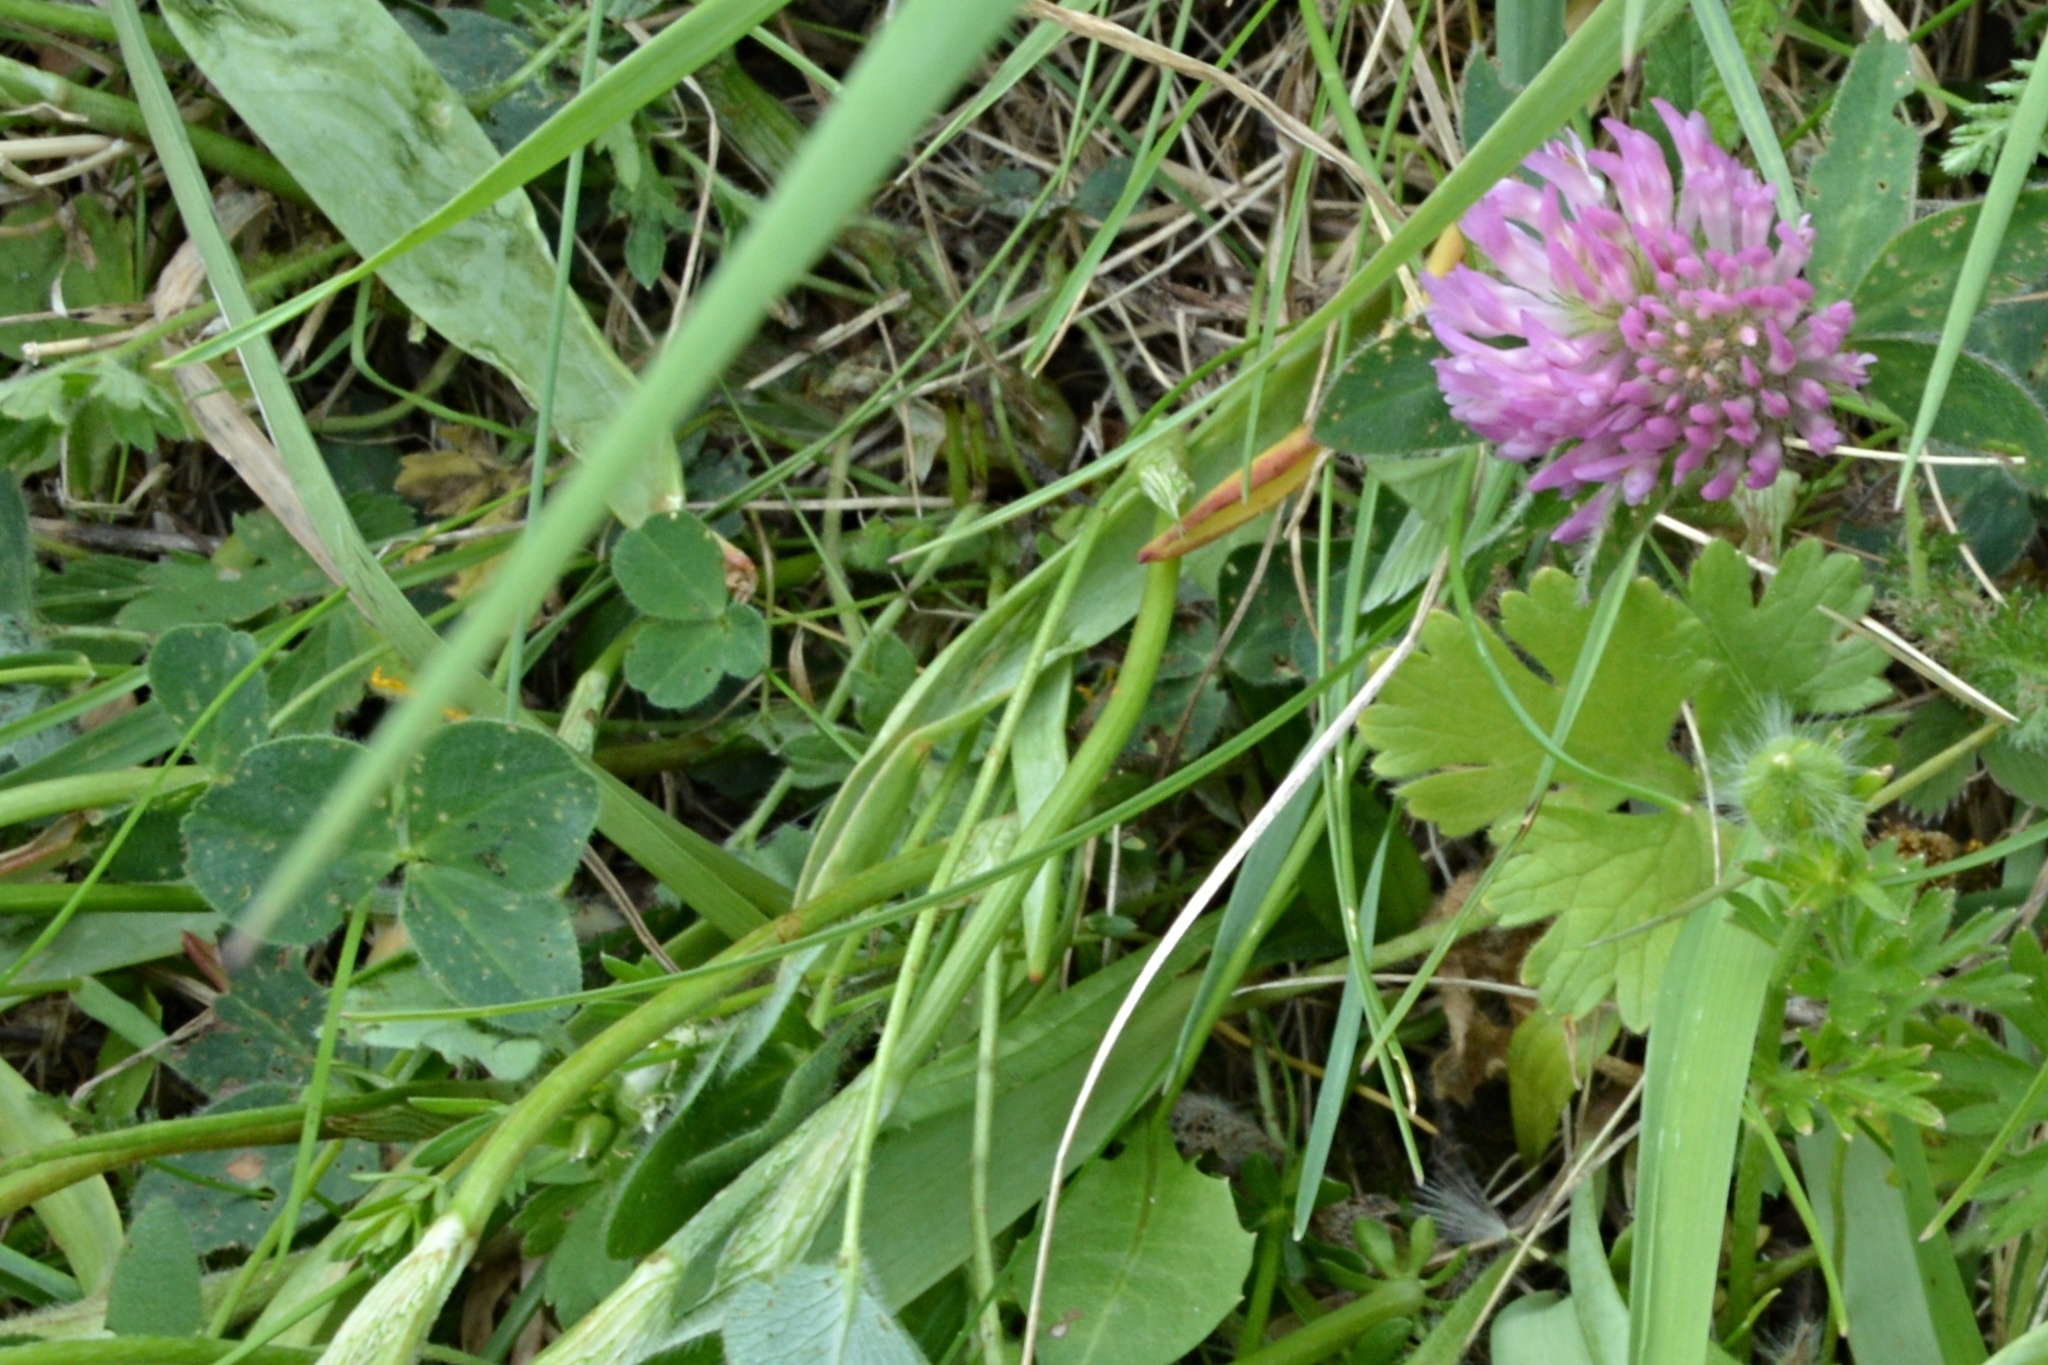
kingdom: Plantae
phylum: Tracheophyta
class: Magnoliopsida
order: Fabales
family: Fabaceae
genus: Trifolium
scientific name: Trifolium pratense
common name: Red clover
